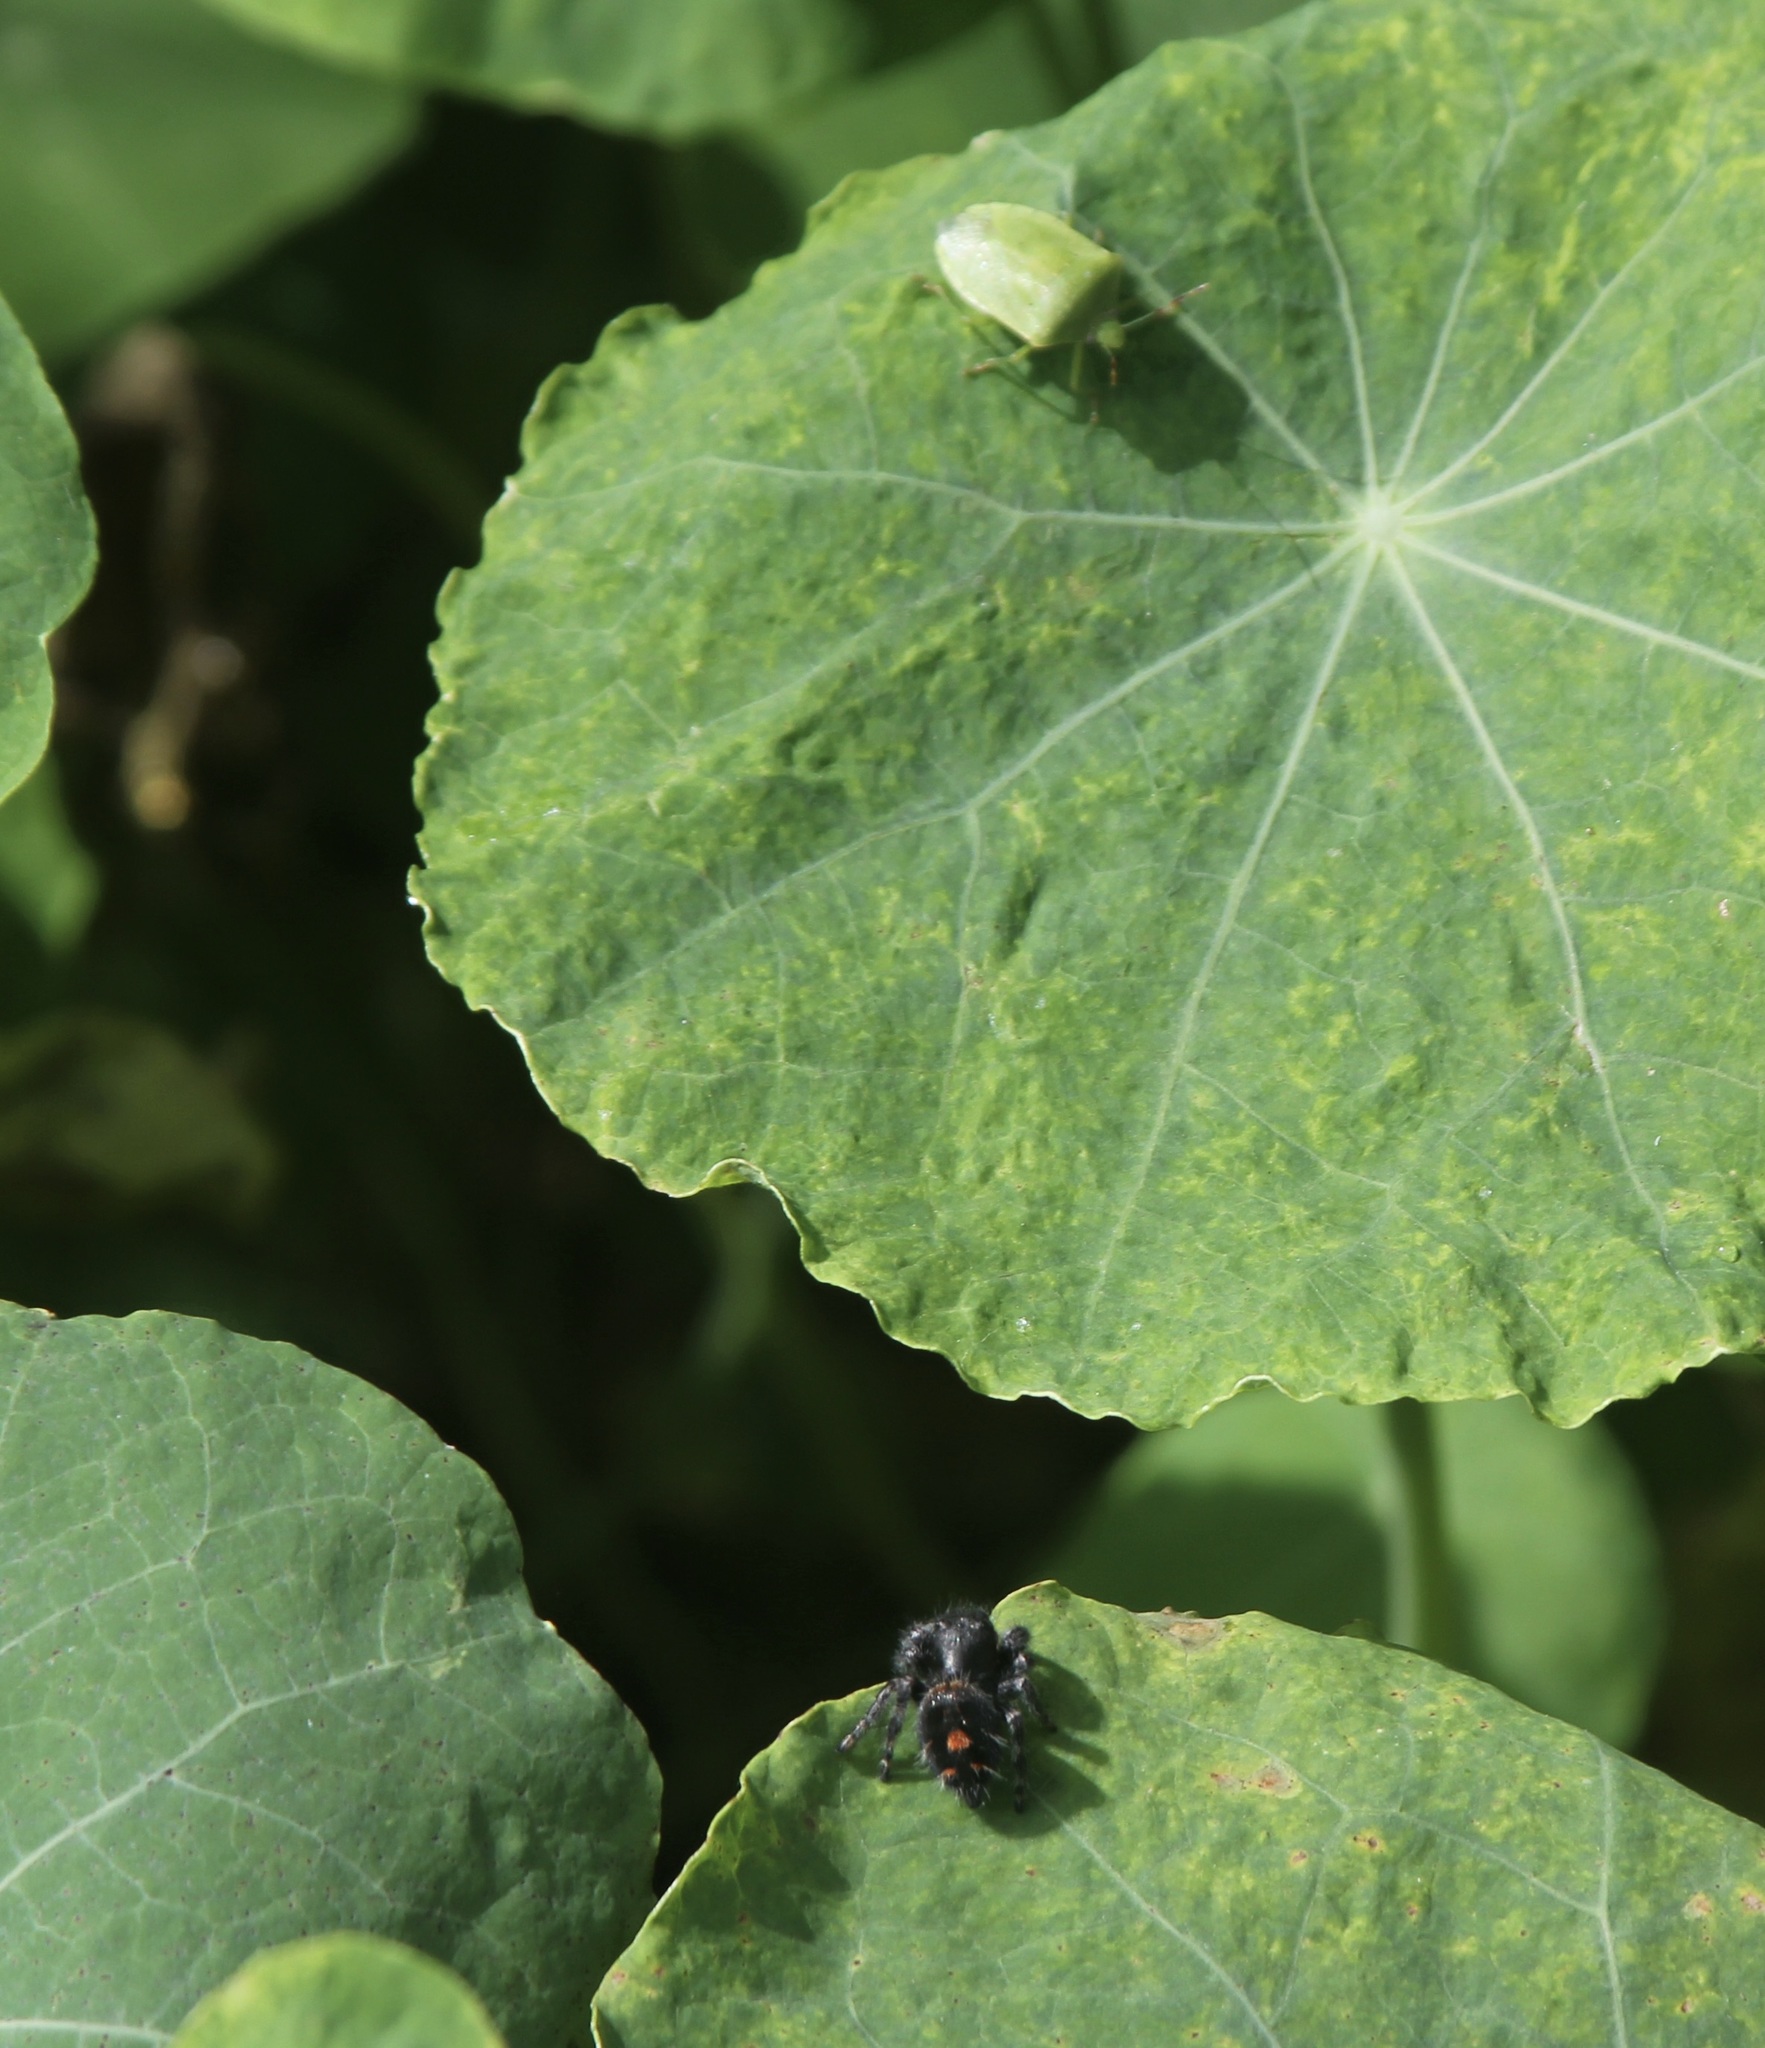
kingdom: Animalia
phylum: Arthropoda
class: Arachnida
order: Araneae
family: Salticidae
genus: Phidippus
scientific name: Phidippus audax
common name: Bold jumper
